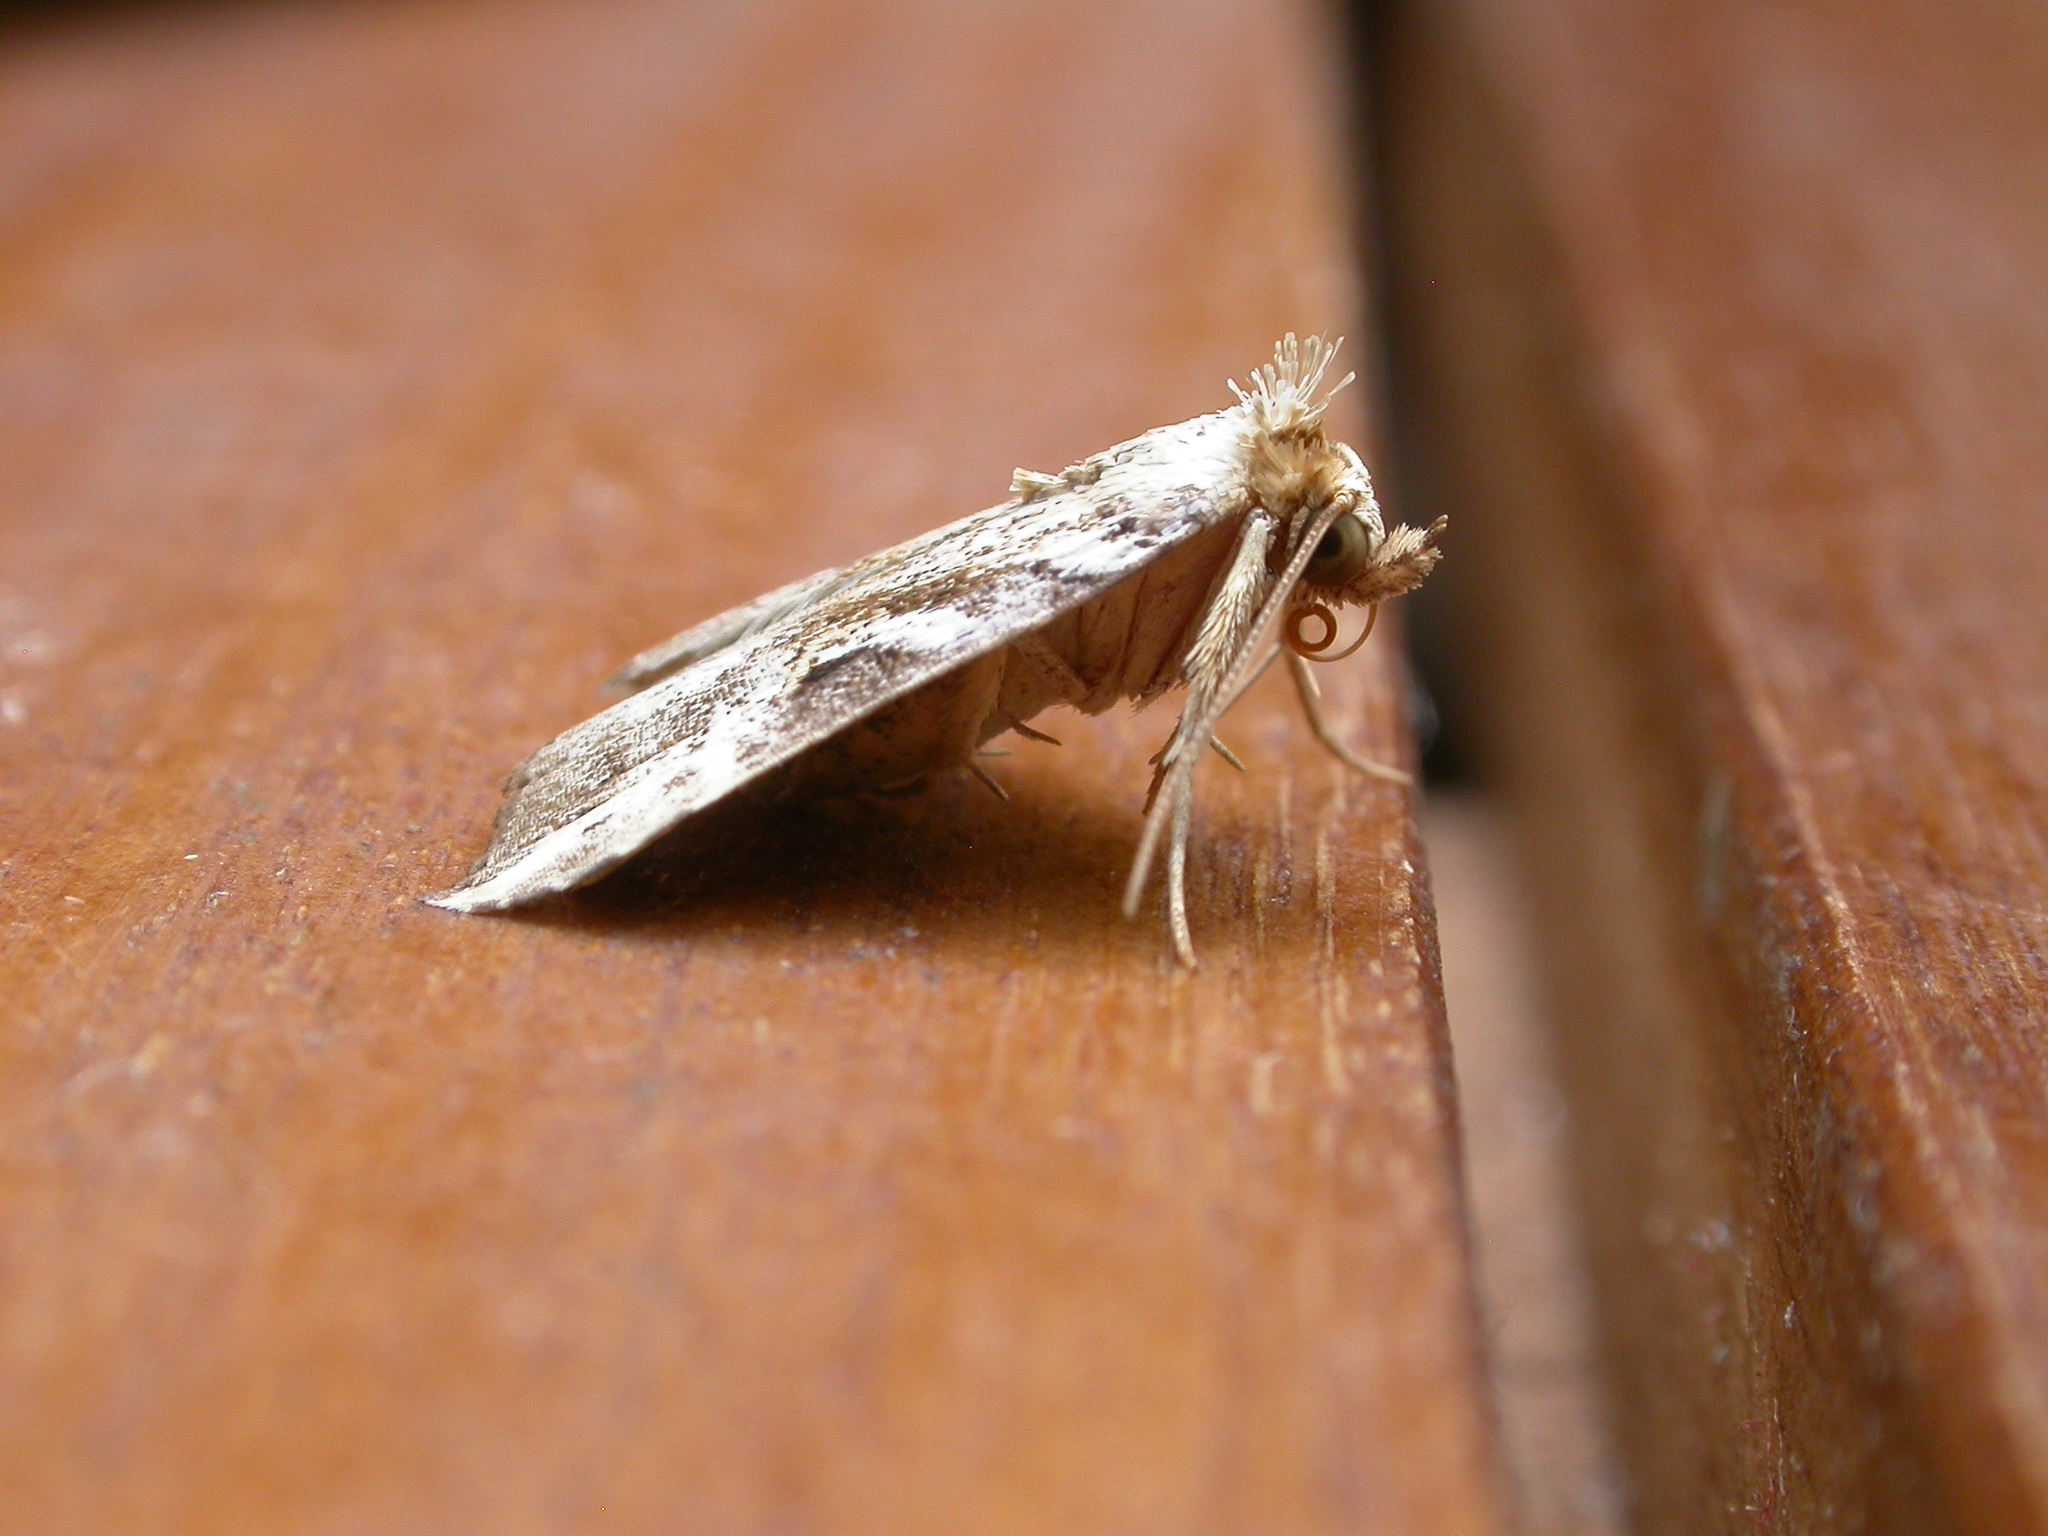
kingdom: Animalia
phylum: Arthropoda
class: Insecta
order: Lepidoptera
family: Erebidae
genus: Chorsia
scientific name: Chorsia perversa
